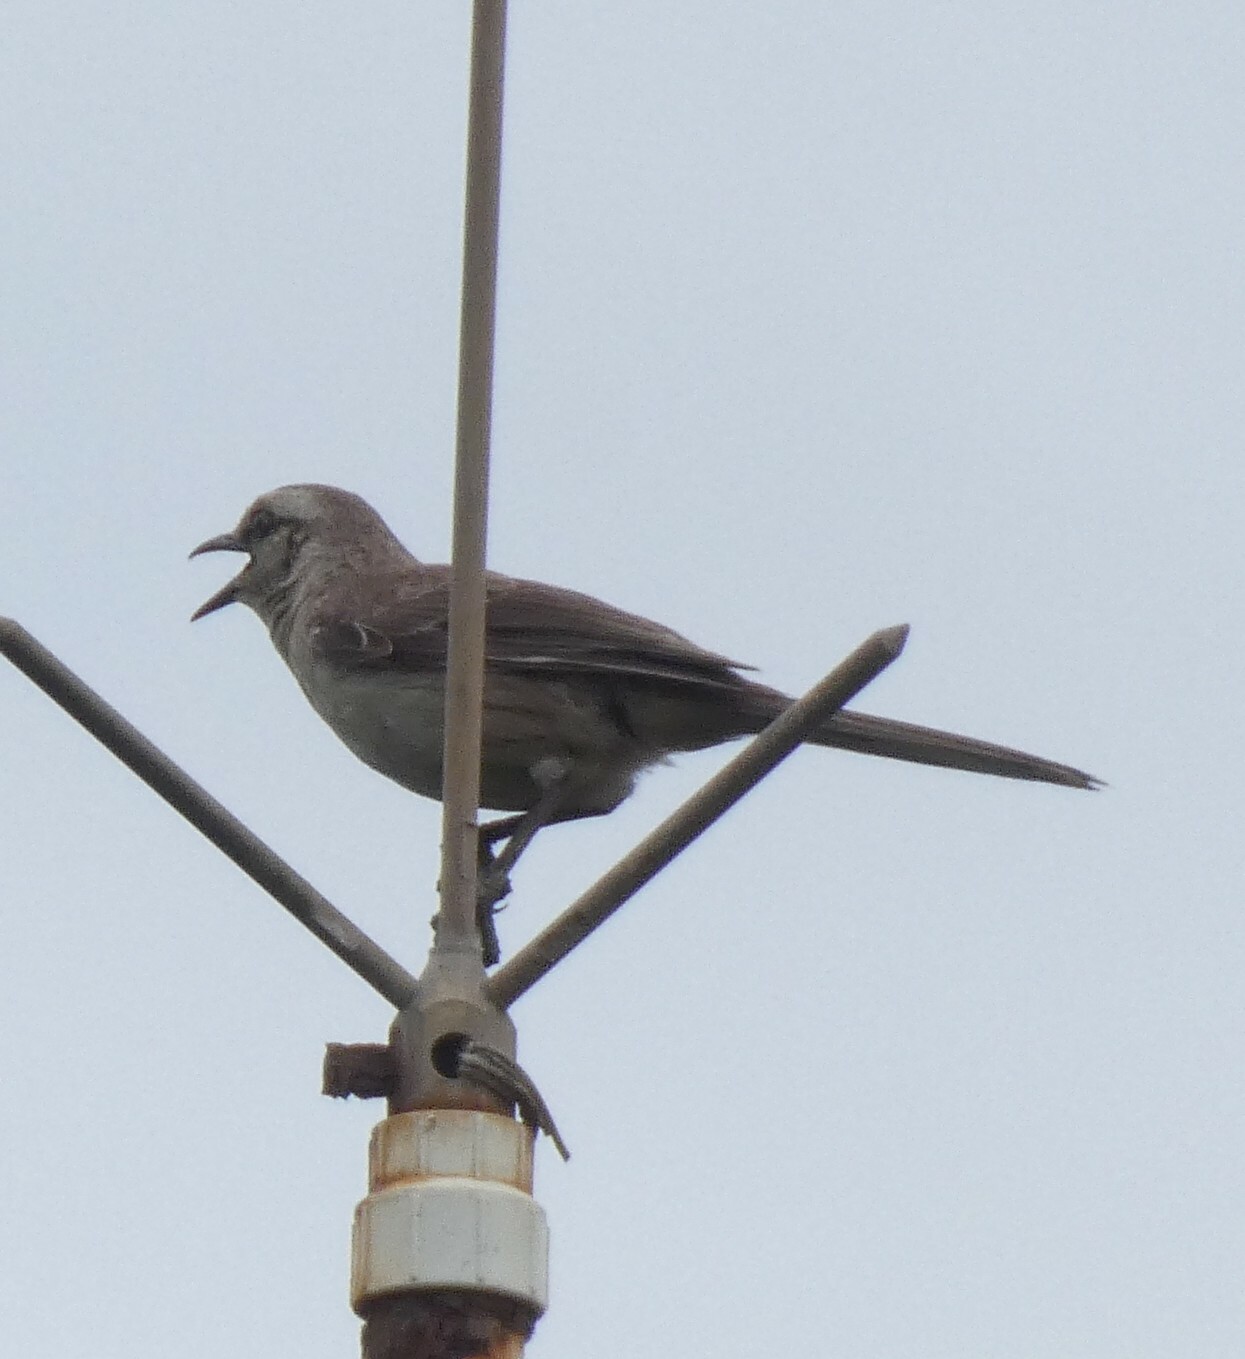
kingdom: Animalia
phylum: Chordata
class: Aves
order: Passeriformes
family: Mimidae
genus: Mimus
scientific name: Mimus gilvus
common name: Tropical mockingbird
